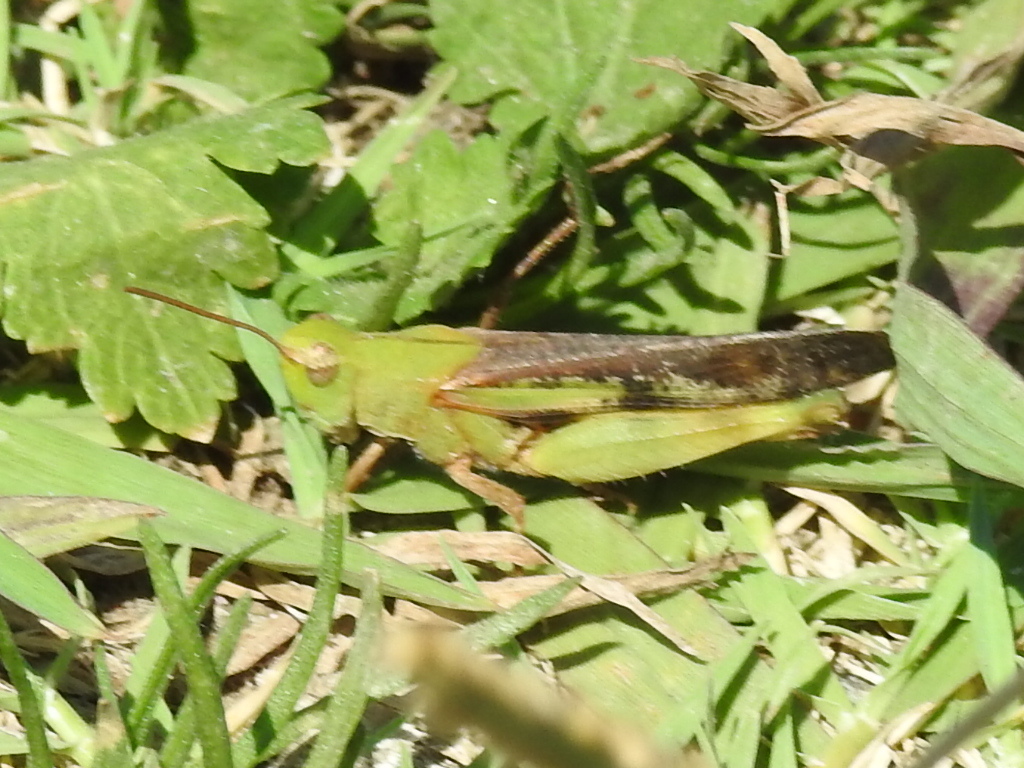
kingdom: Animalia
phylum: Arthropoda
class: Insecta
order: Orthoptera
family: Acrididae
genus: Chortophaga
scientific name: Chortophaga viridifasciata
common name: Green-striped grasshopper
